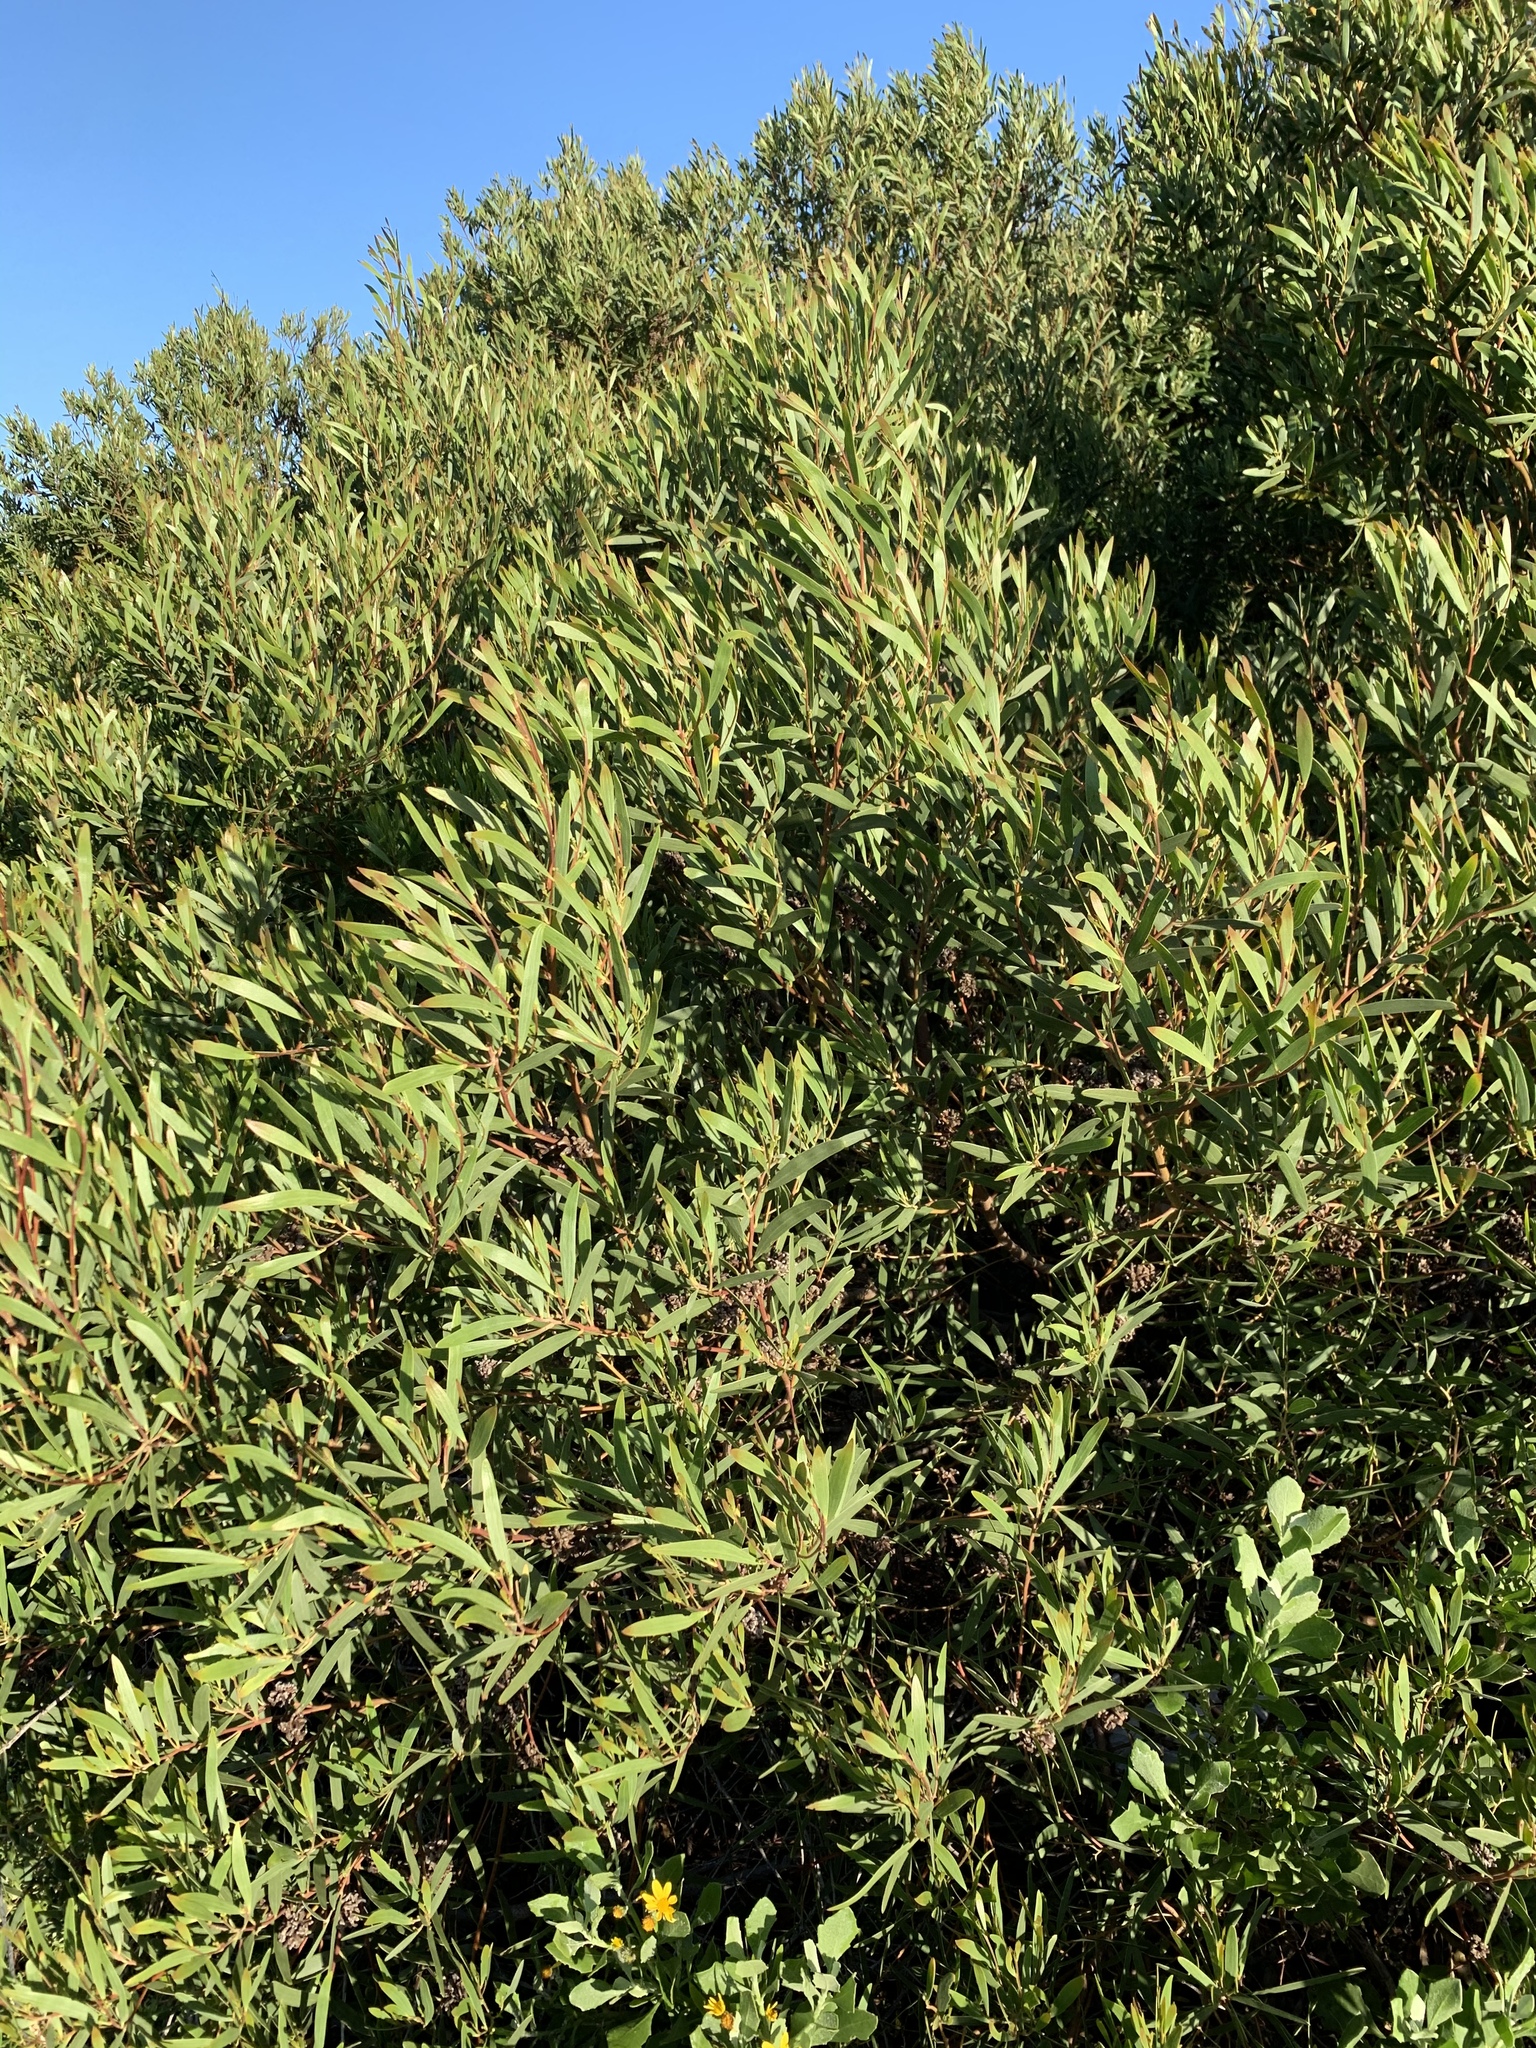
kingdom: Plantae
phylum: Tracheophyta
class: Magnoliopsida
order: Fabales
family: Fabaceae
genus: Acacia
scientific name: Acacia cyclops
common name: Coastal wattle
